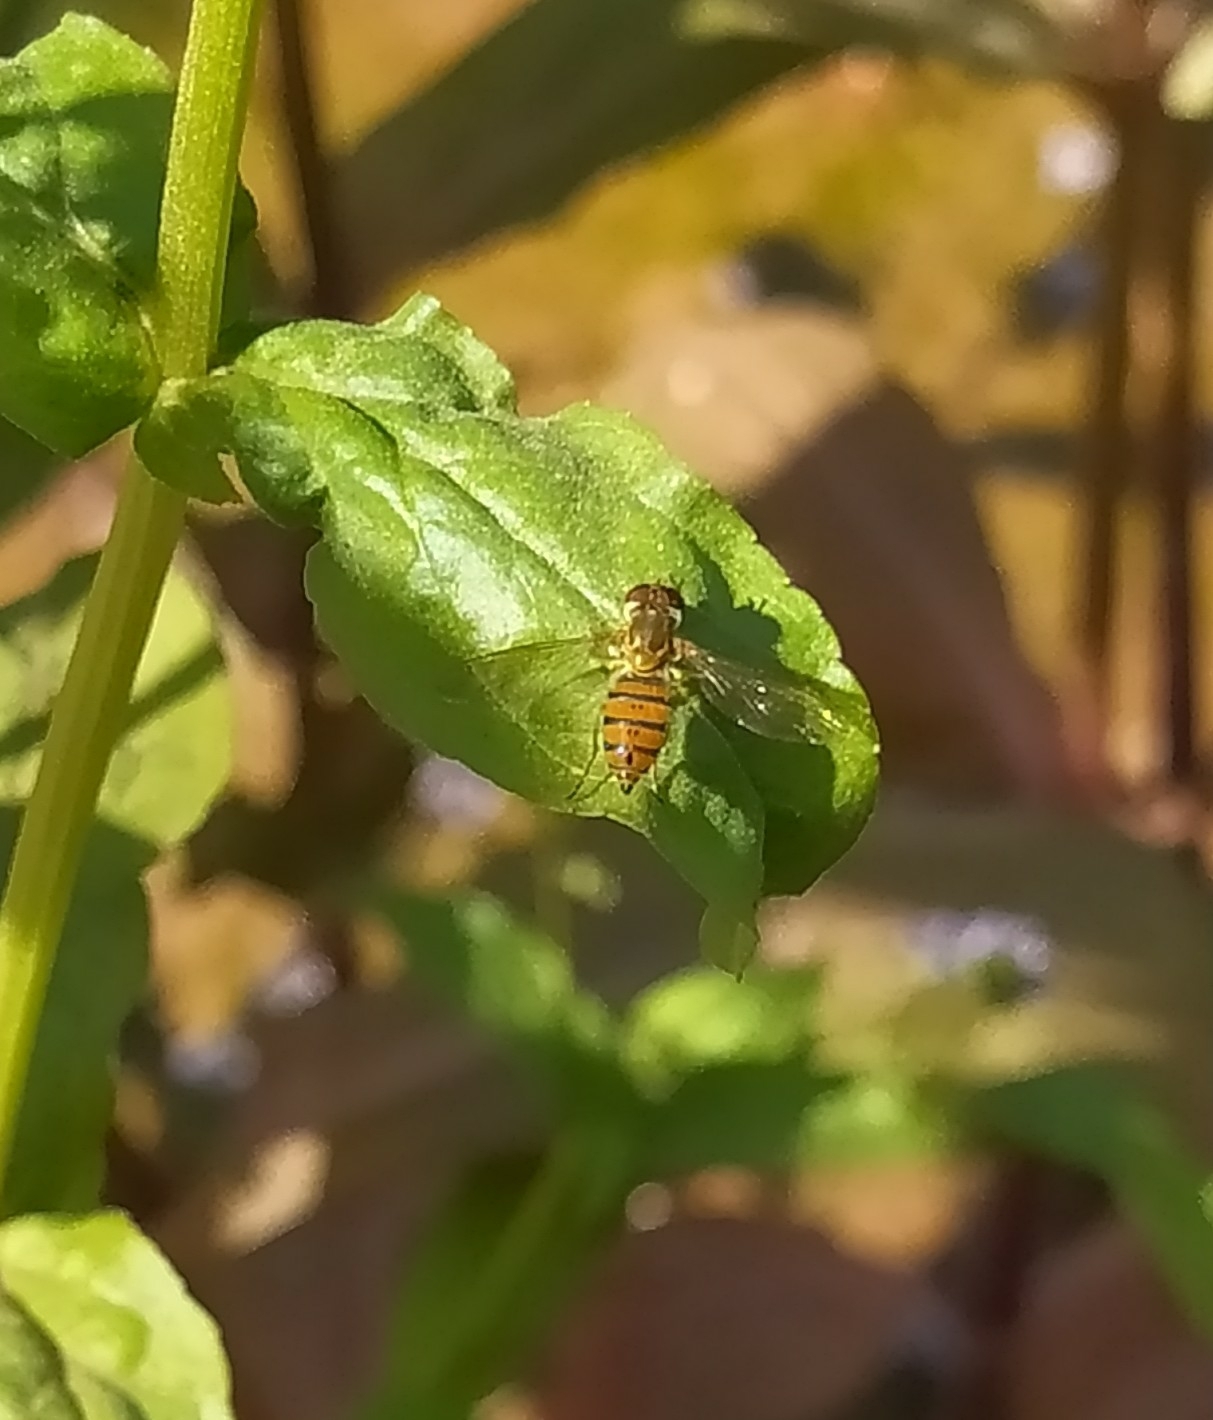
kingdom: Animalia
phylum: Arthropoda
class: Insecta
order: Diptera
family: Syrphidae
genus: Toxomerus
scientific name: Toxomerus
